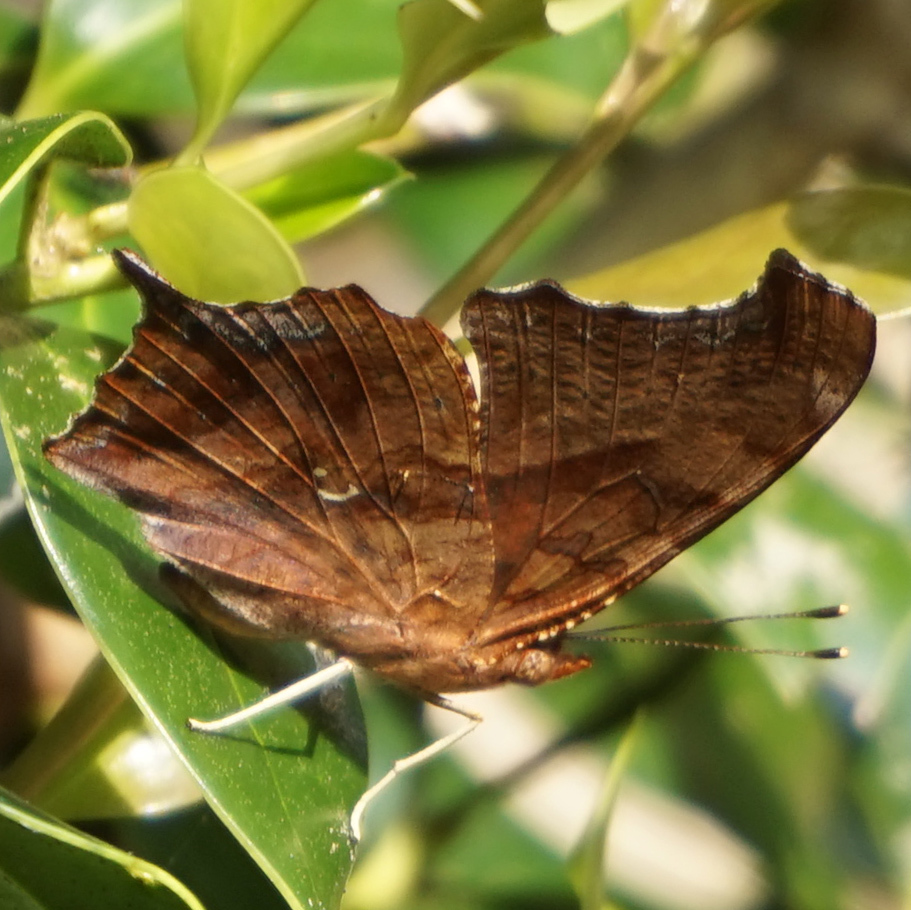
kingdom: Animalia
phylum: Arthropoda
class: Insecta
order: Lepidoptera
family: Nymphalidae
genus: Polygonia
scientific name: Polygonia interrogationis
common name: Question mark
